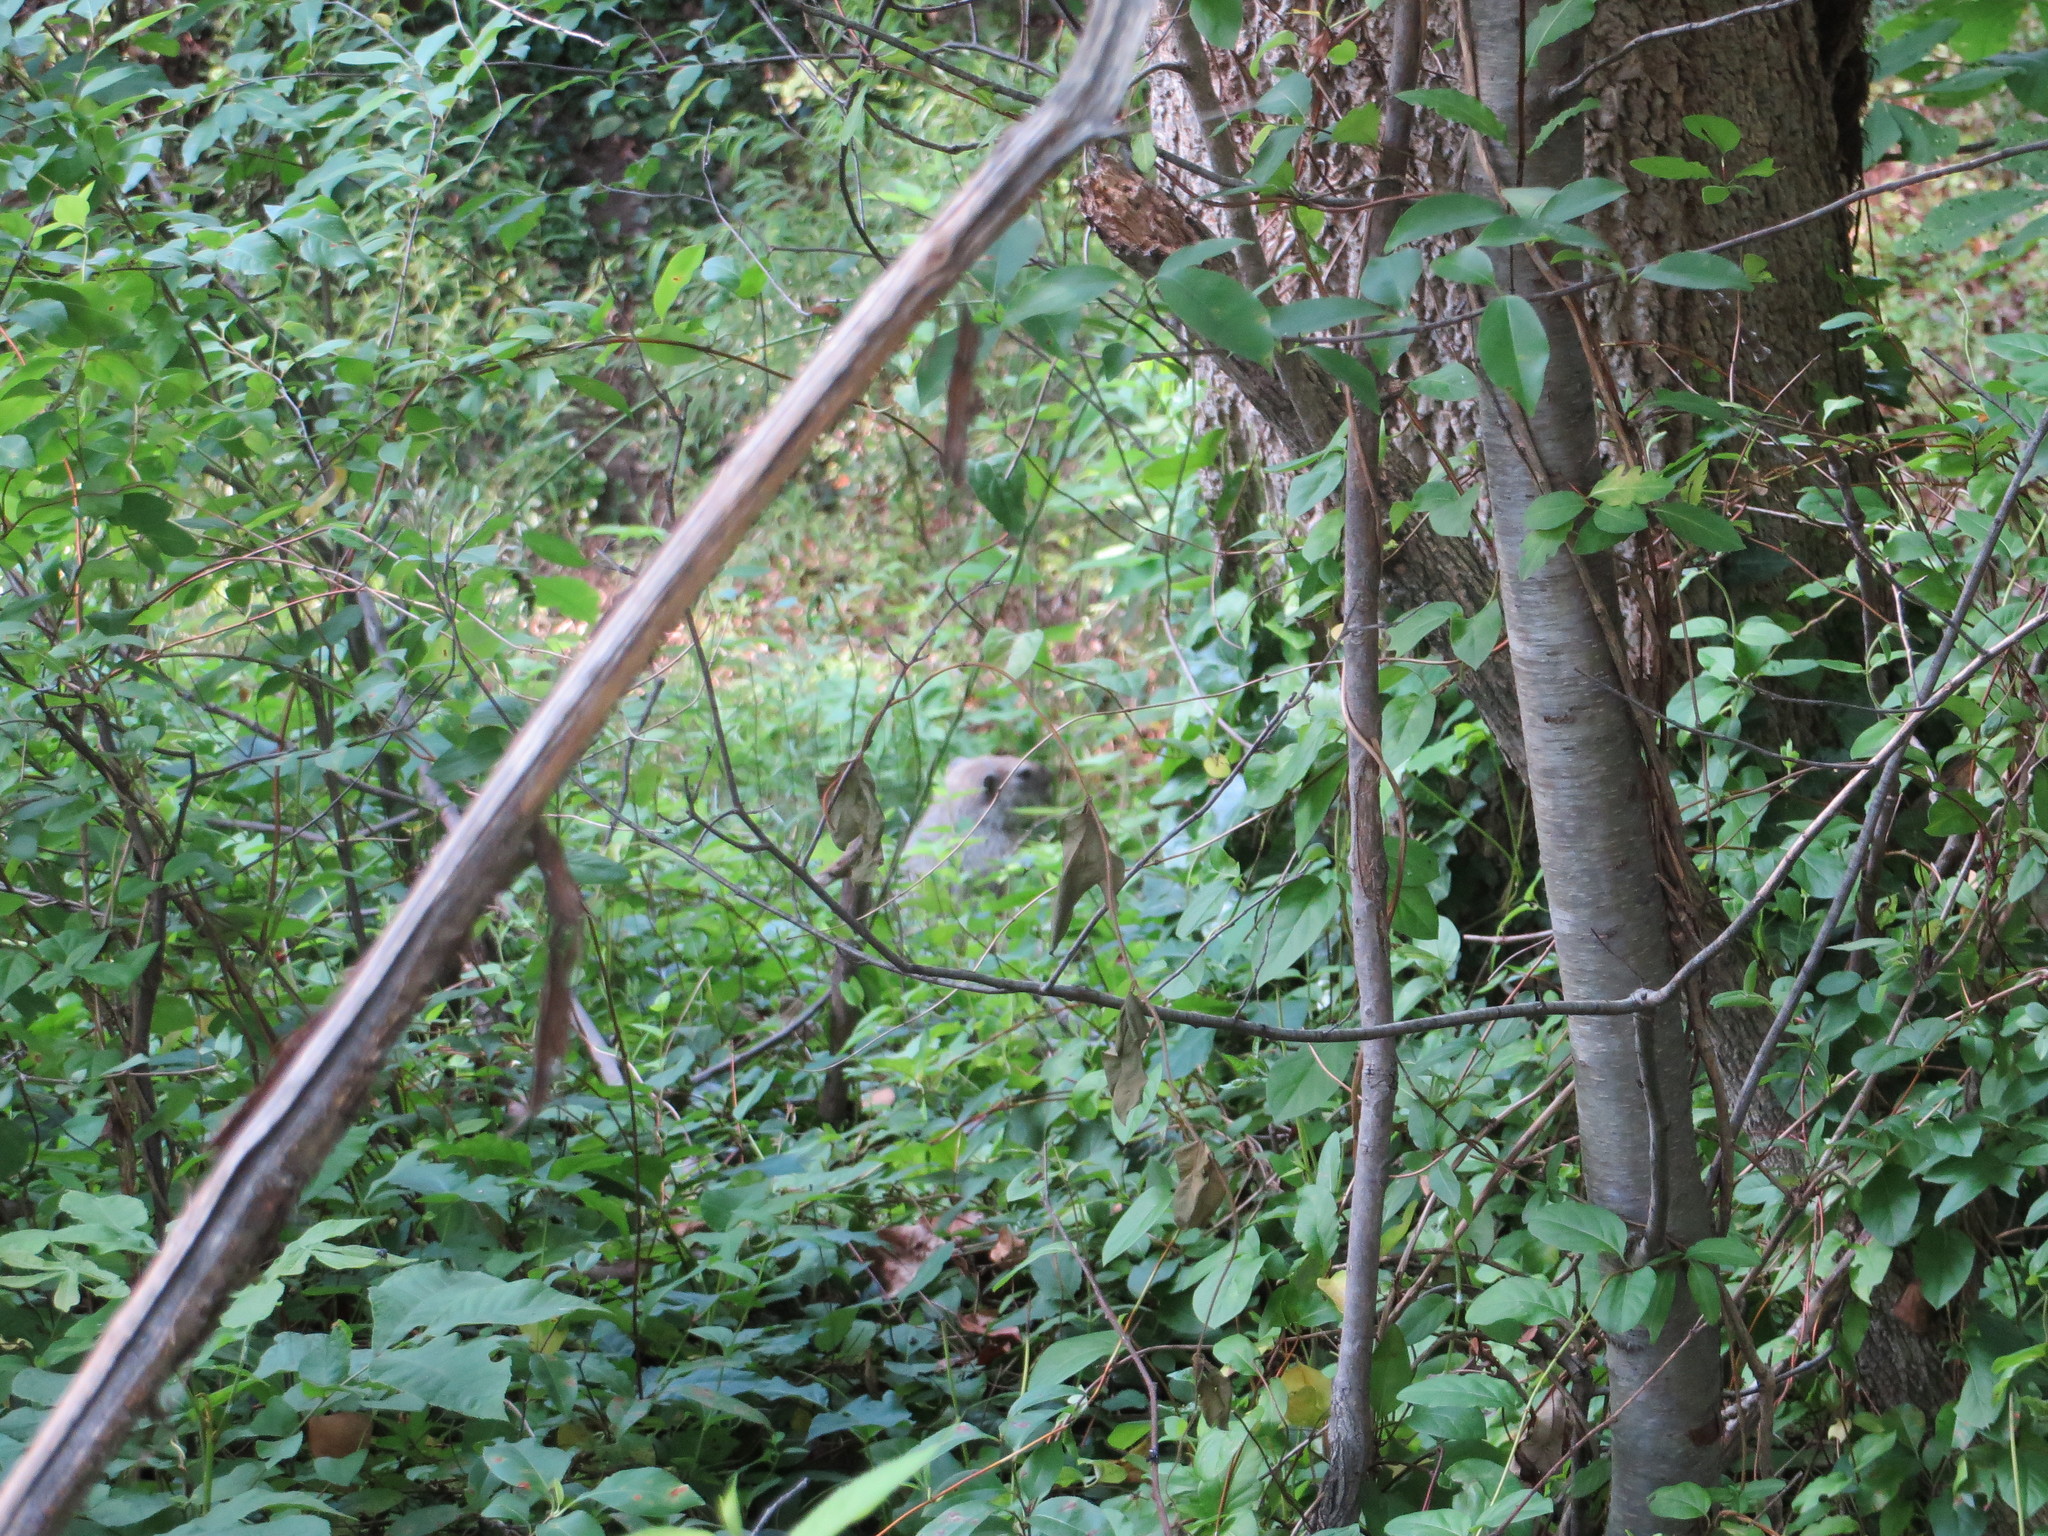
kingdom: Animalia
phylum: Chordata
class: Mammalia
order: Rodentia
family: Sciuridae
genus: Marmota
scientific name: Marmota monax
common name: Groundhog
